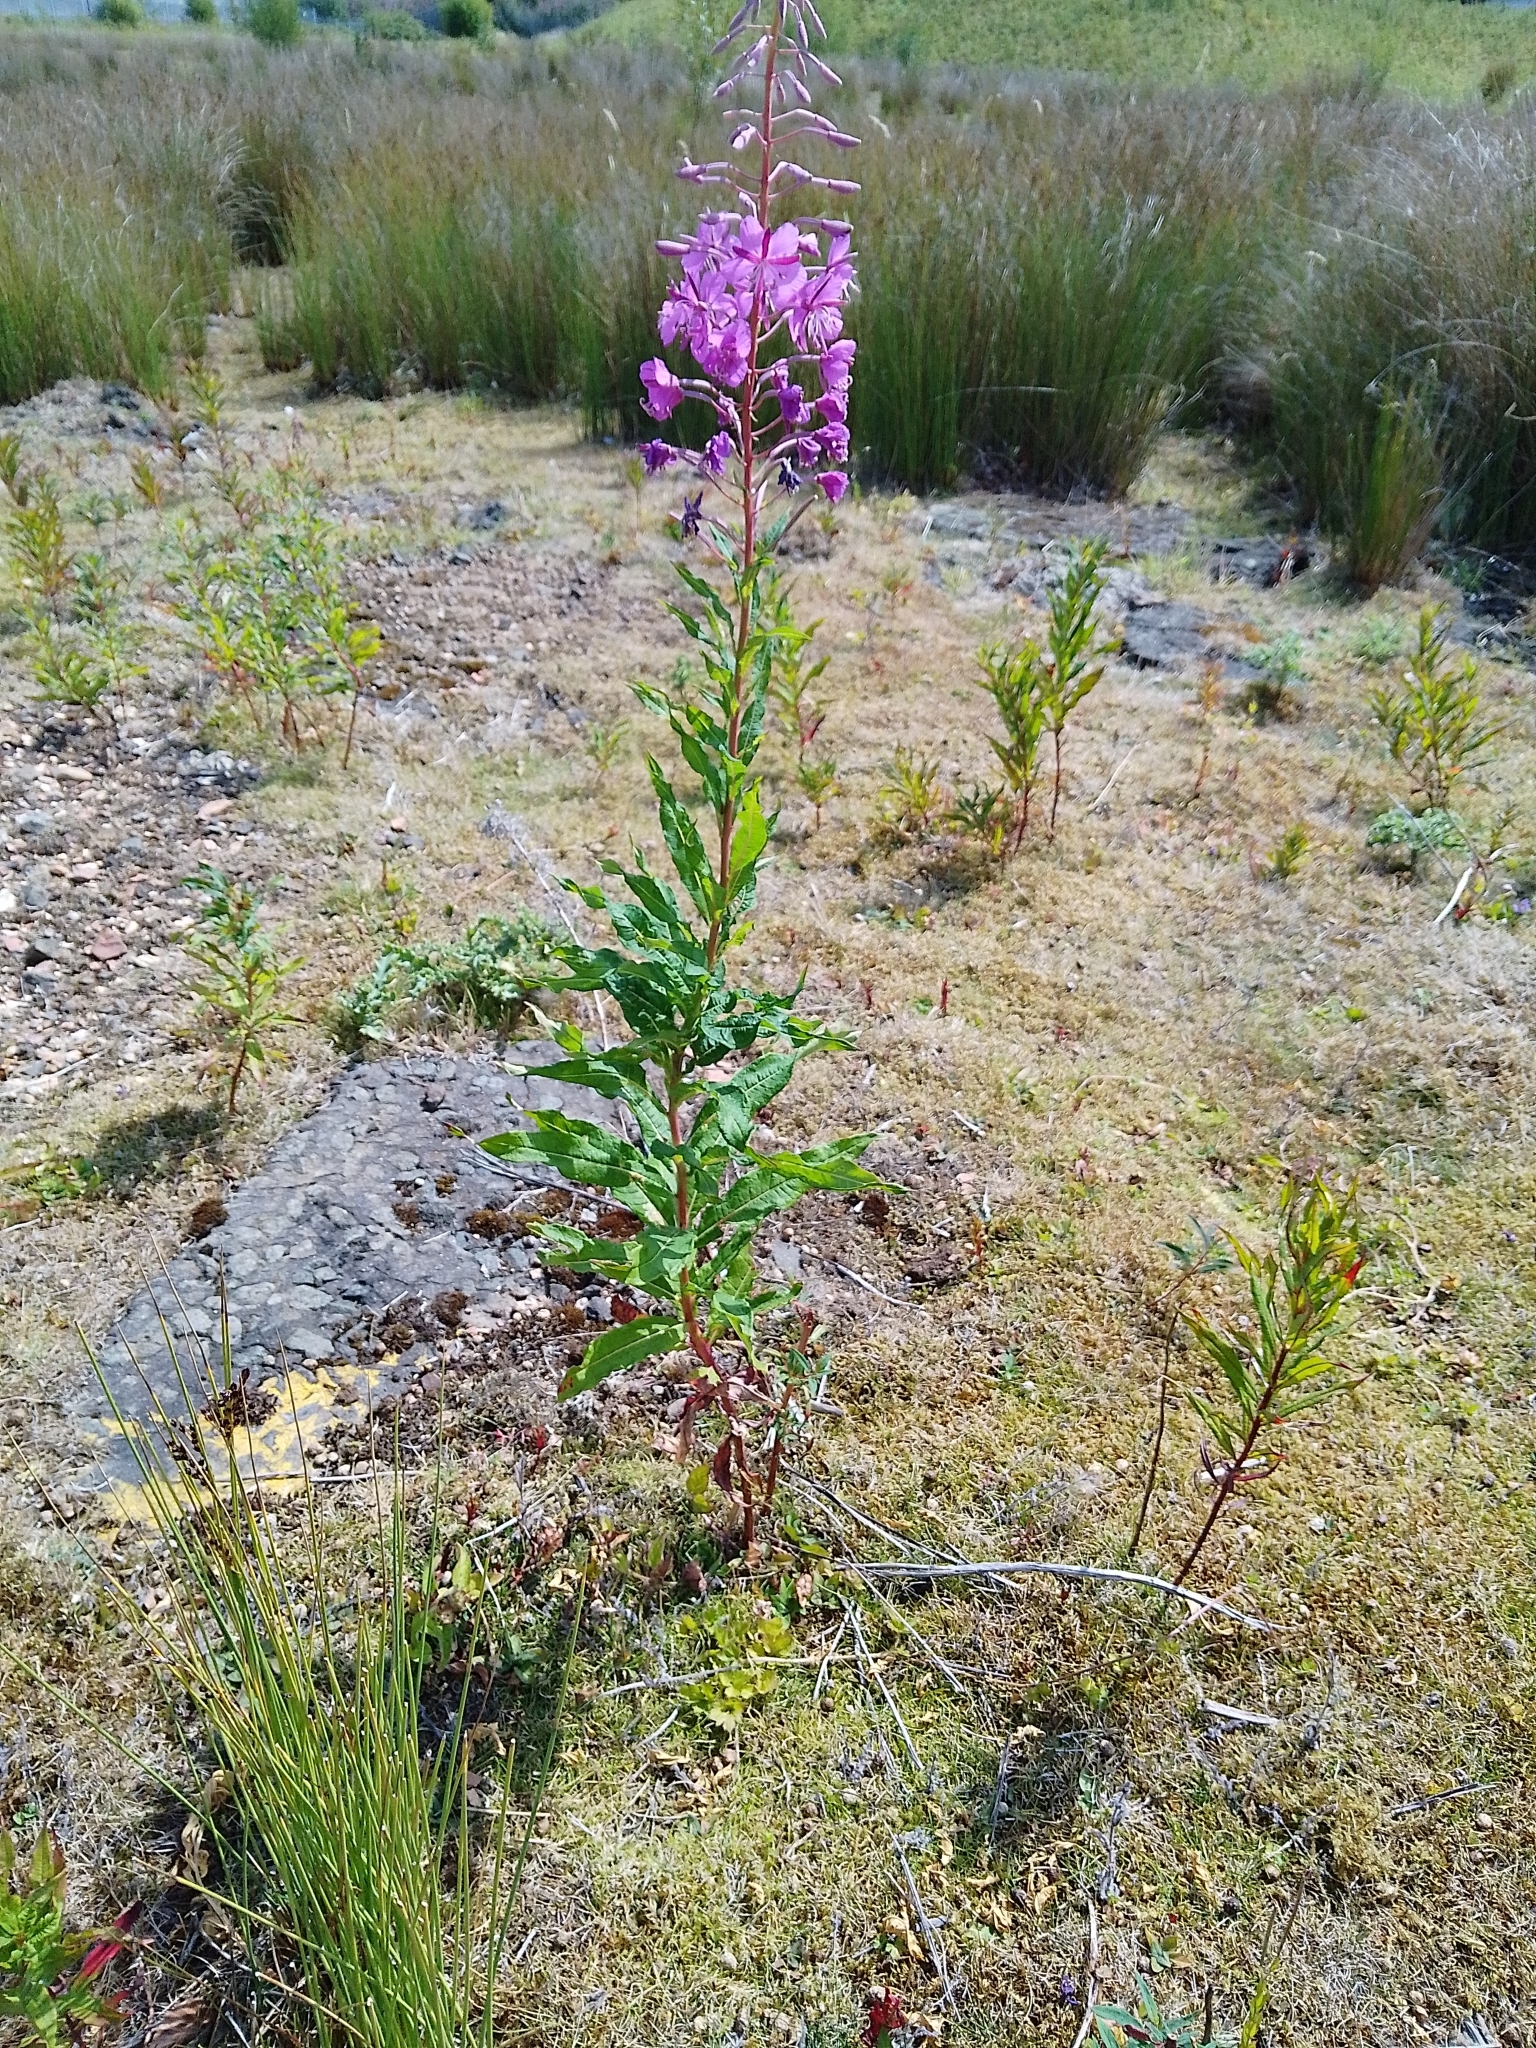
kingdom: Plantae
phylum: Tracheophyta
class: Magnoliopsida
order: Myrtales
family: Onagraceae
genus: Chamaenerion
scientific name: Chamaenerion angustifolium
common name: Fireweed
